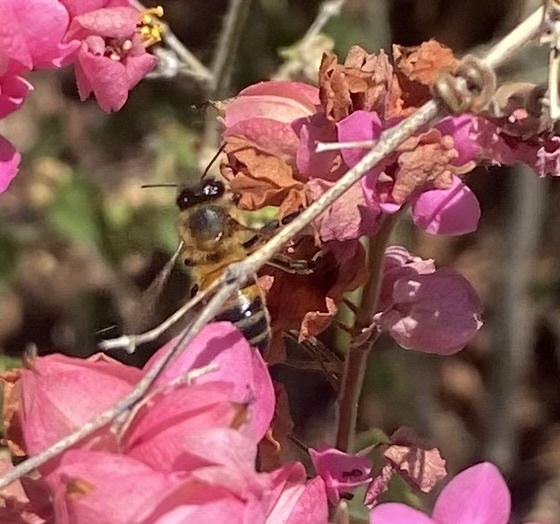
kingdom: Animalia
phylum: Arthropoda
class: Insecta
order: Hymenoptera
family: Apidae
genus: Apis
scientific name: Apis mellifera
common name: Honey bee
